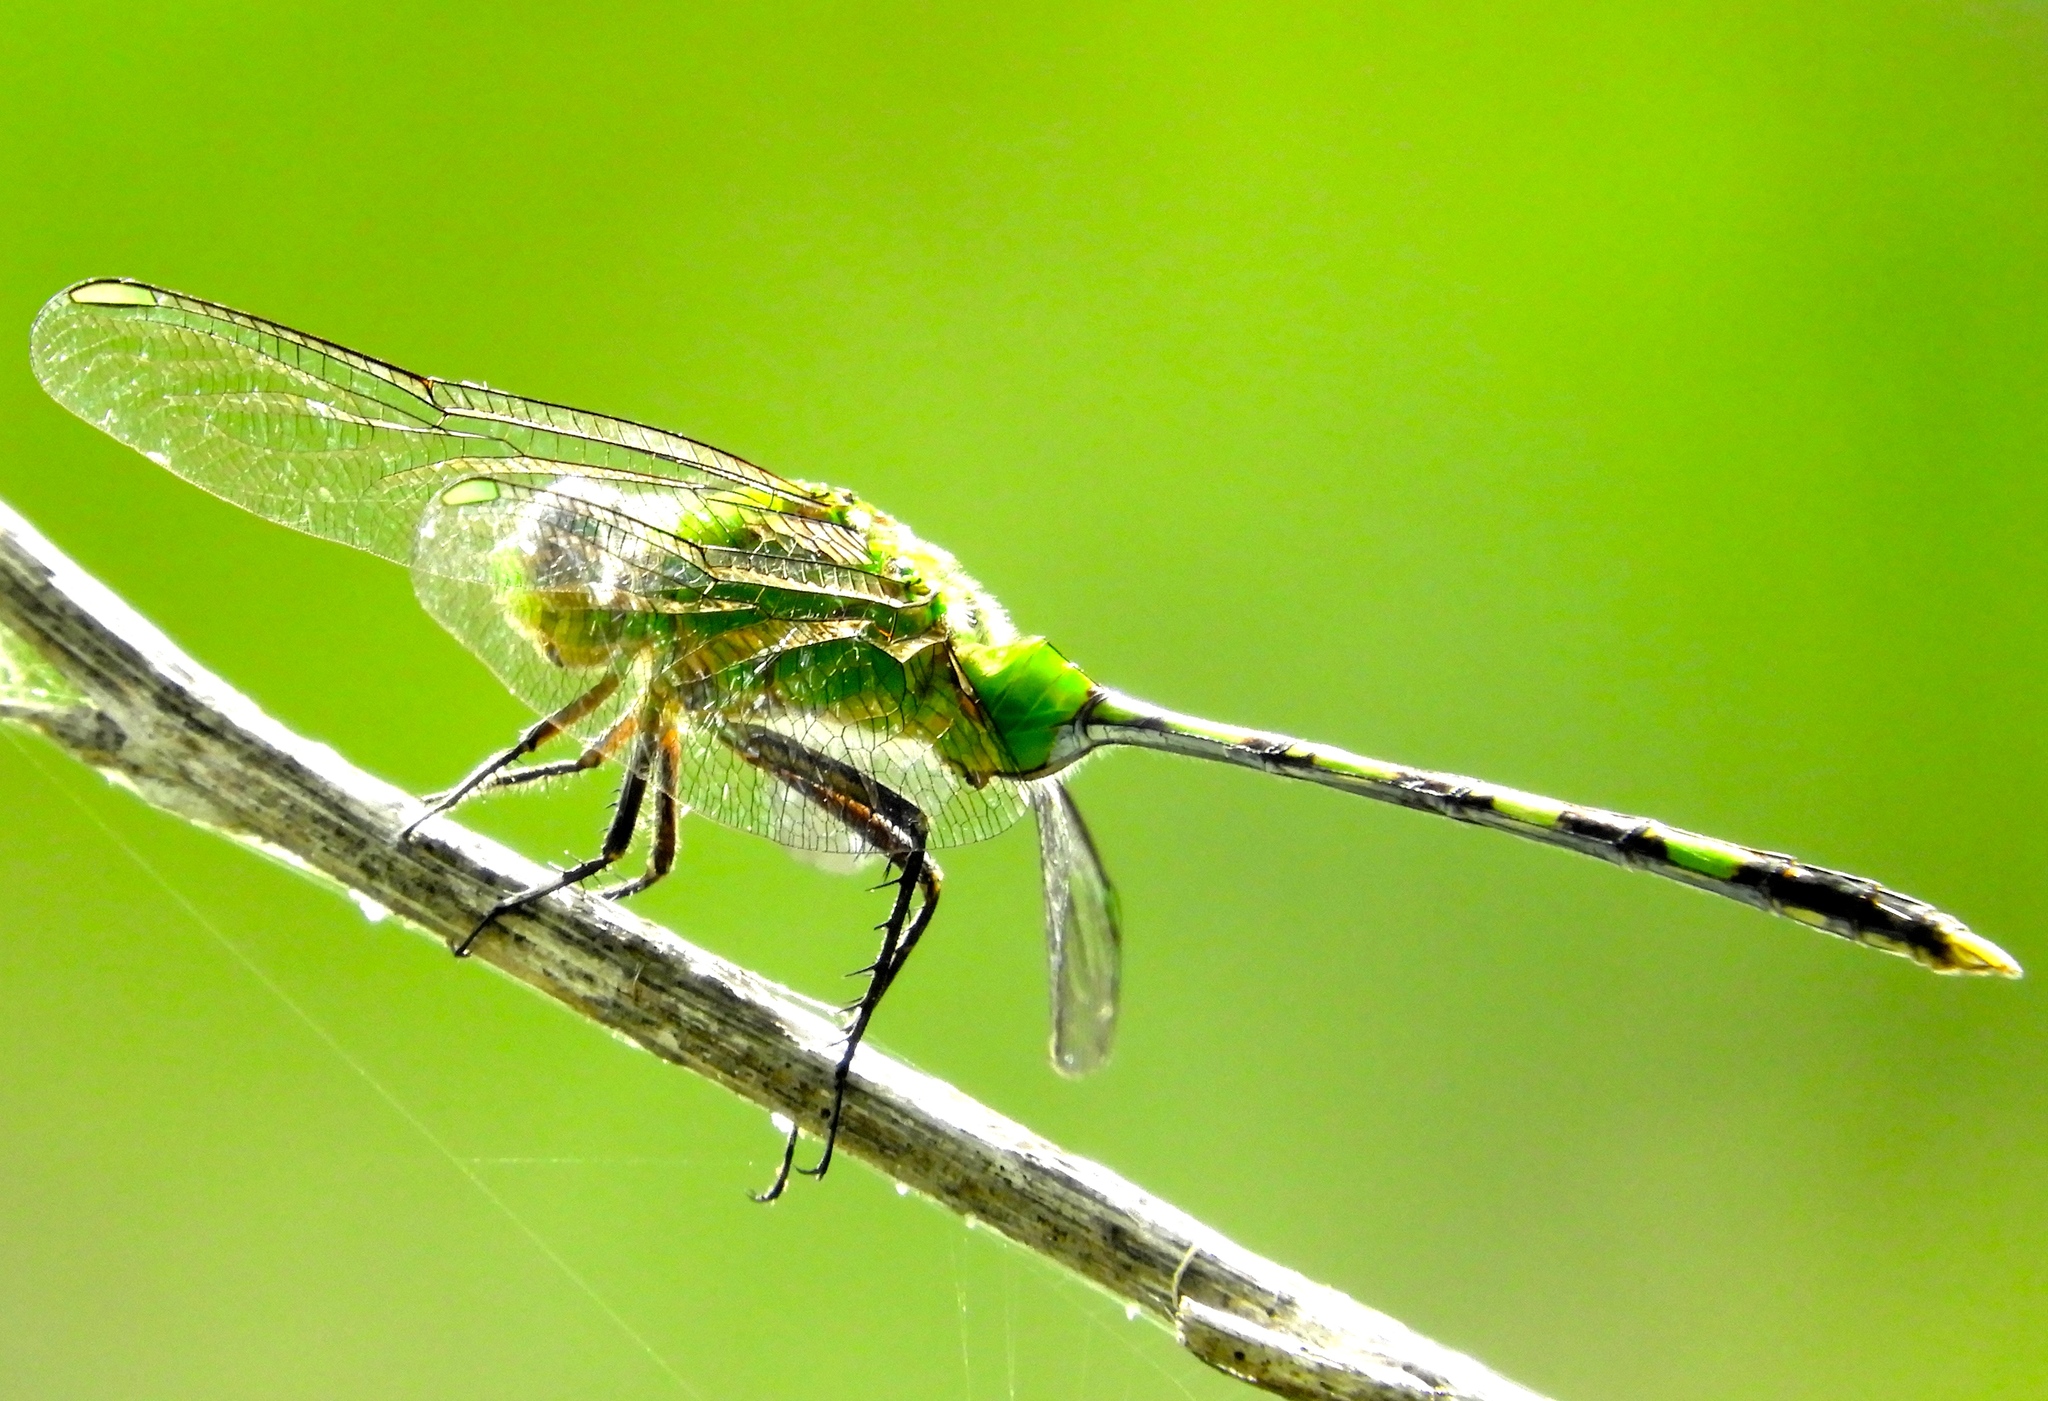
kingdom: Animalia
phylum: Arthropoda
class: Insecta
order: Odonata
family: Libellulidae
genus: Erythemis
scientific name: Erythemis vesiculosa
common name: Great pondhawk
